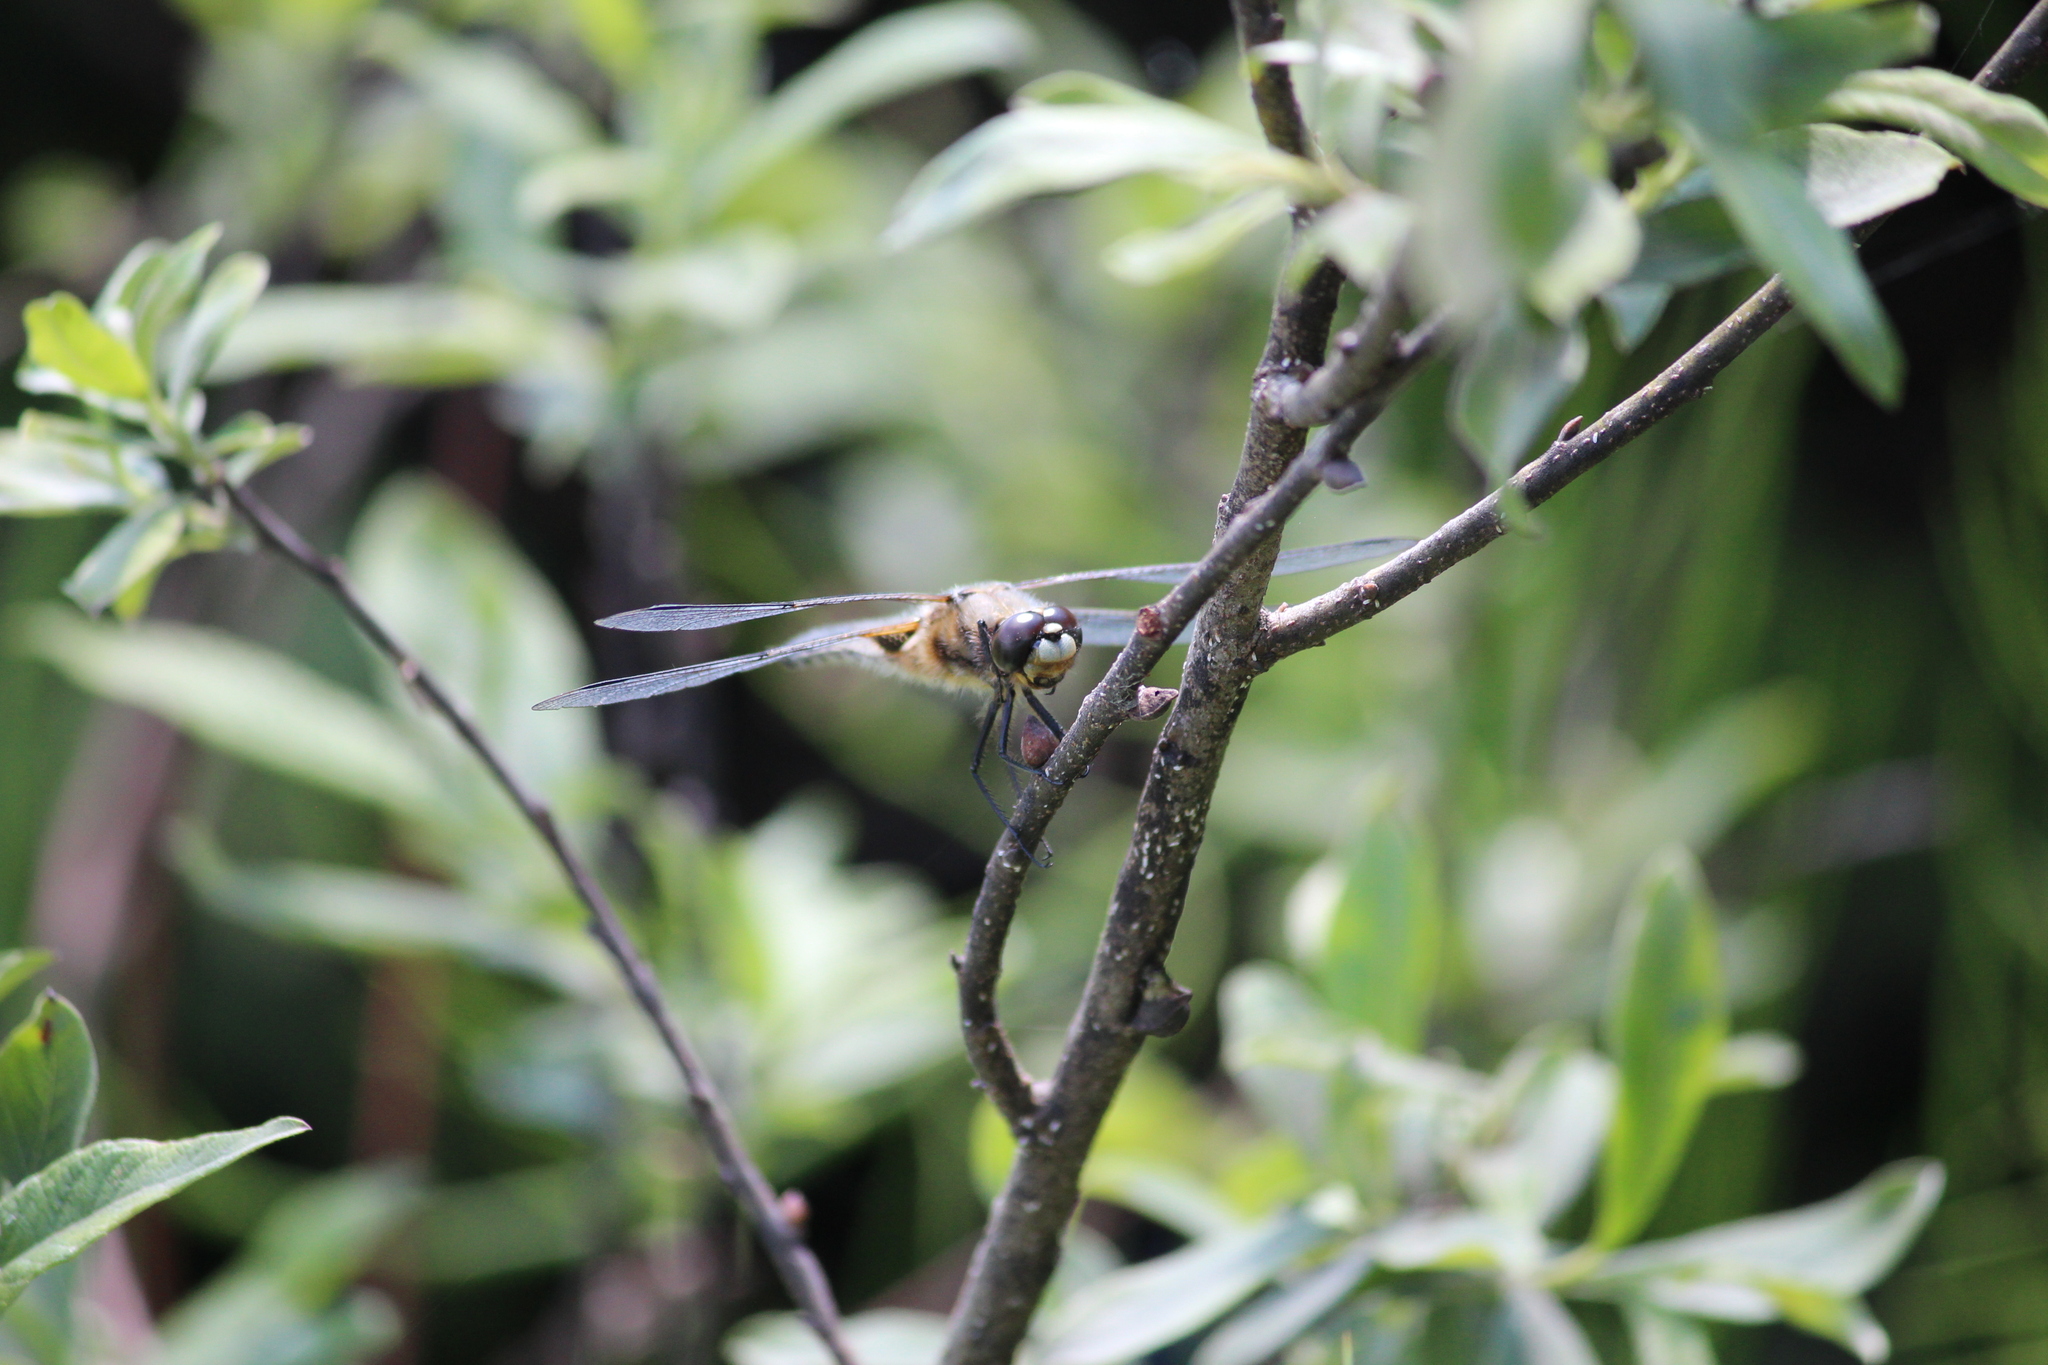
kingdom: Animalia
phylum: Arthropoda
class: Insecta
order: Odonata
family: Libellulidae
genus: Libellula
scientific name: Libellula quadrimaculata
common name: Four-spotted chaser
